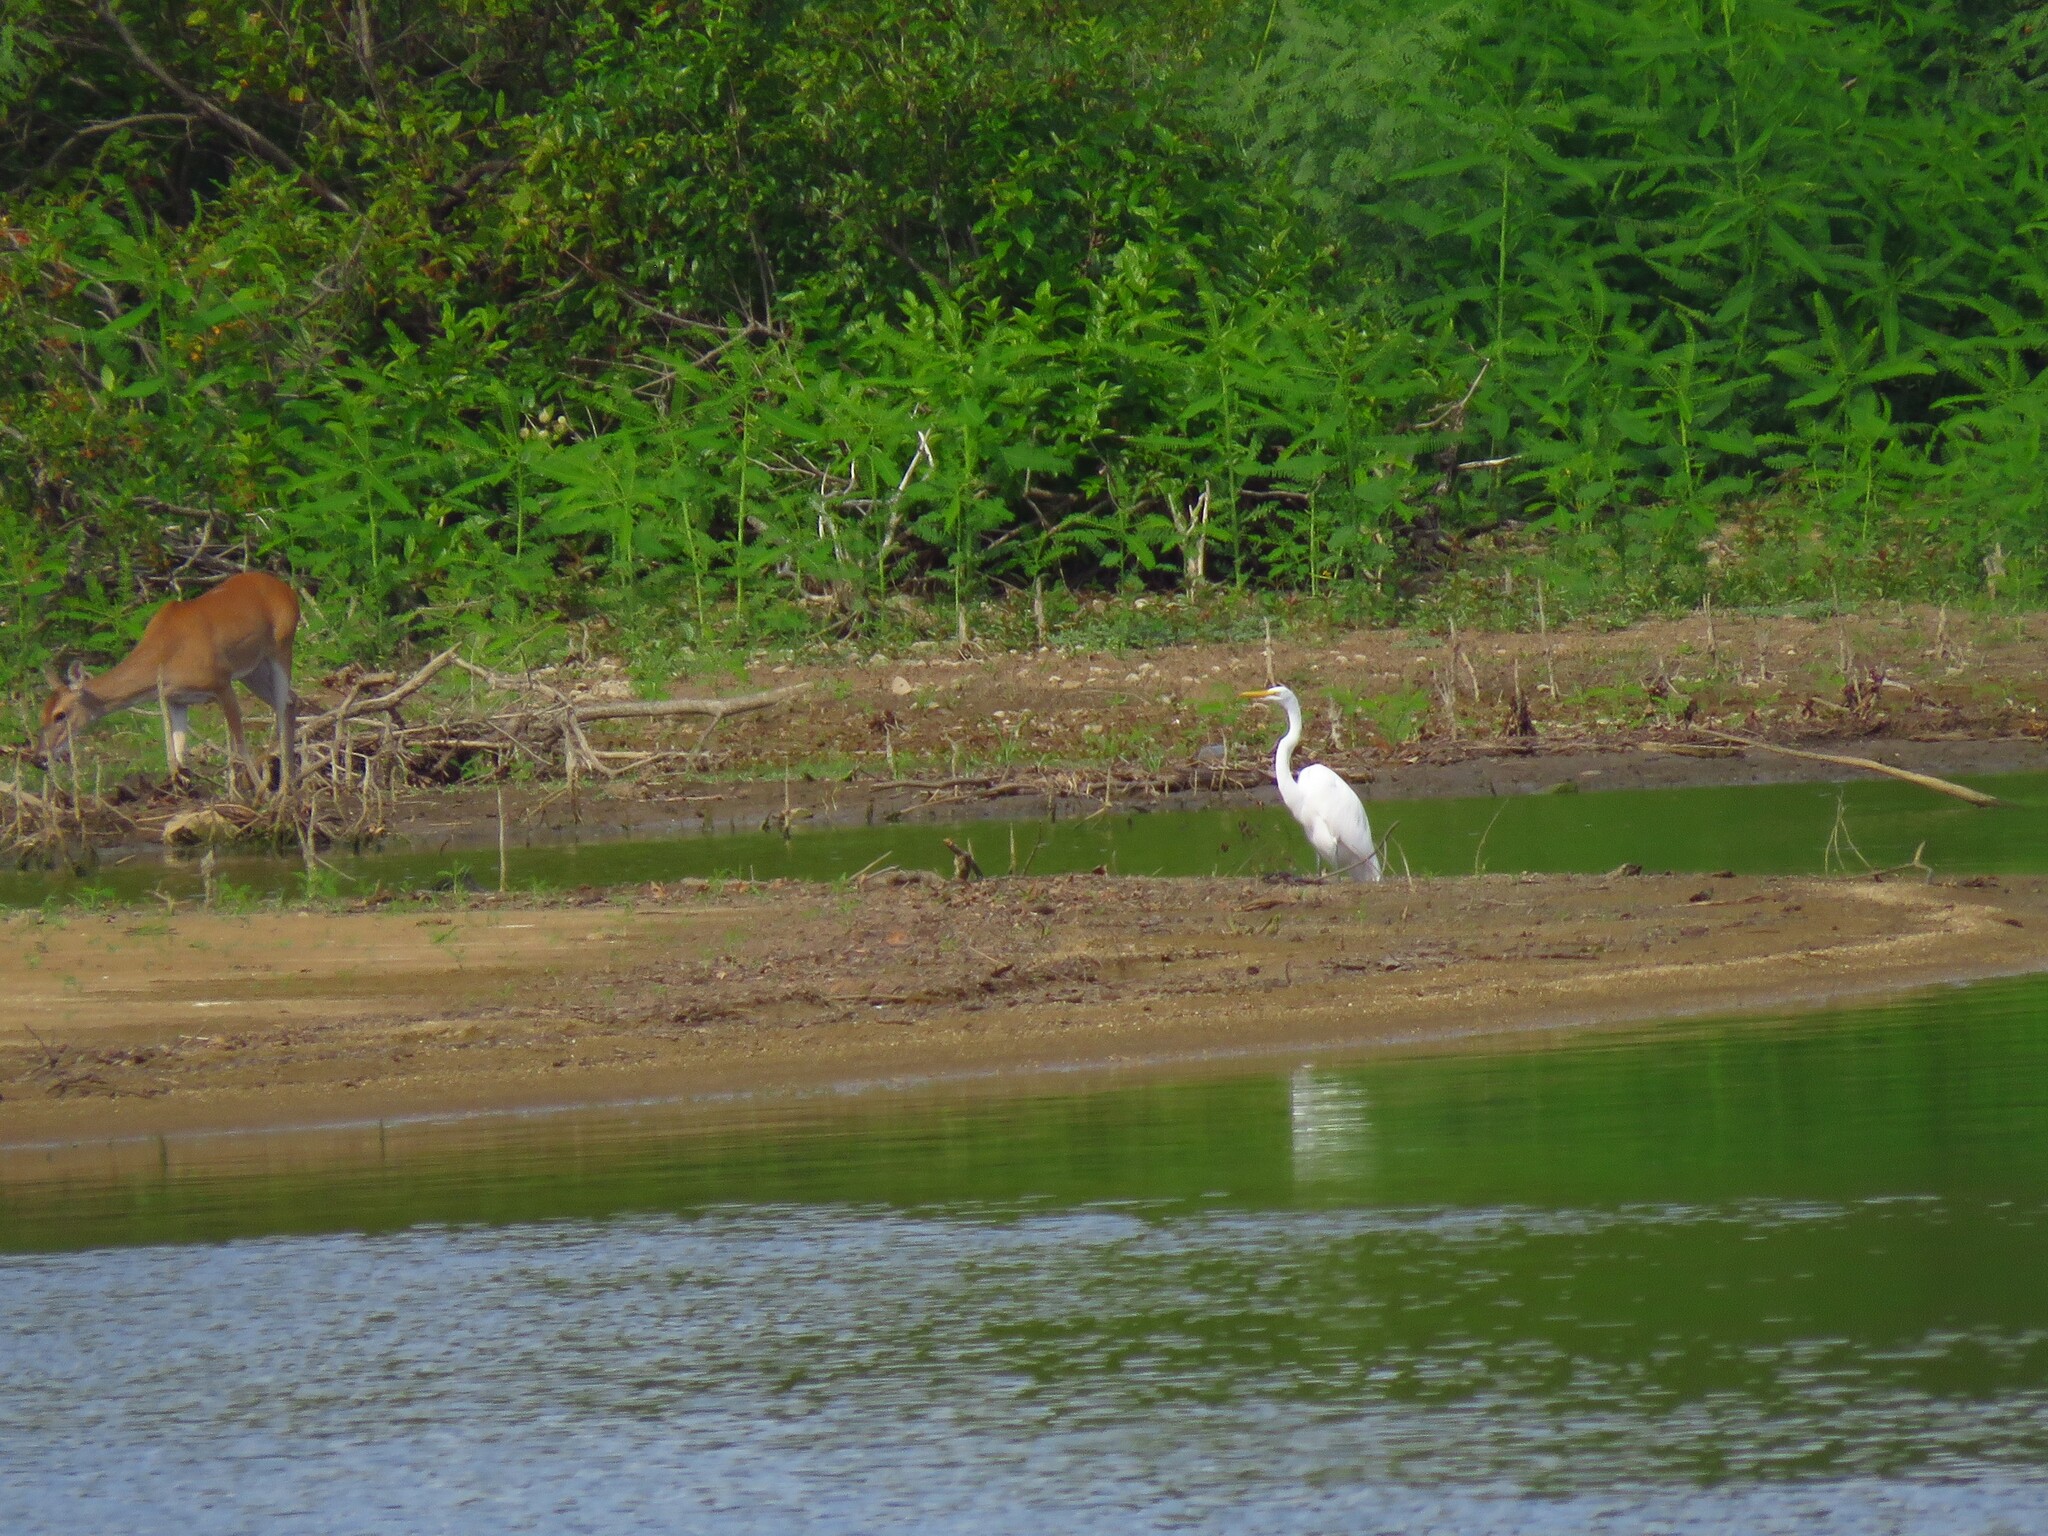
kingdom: Animalia
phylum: Chordata
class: Aves
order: Pelecaniformes
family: Ardeidae
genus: Ardea
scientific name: Ardea alba
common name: Great egret
